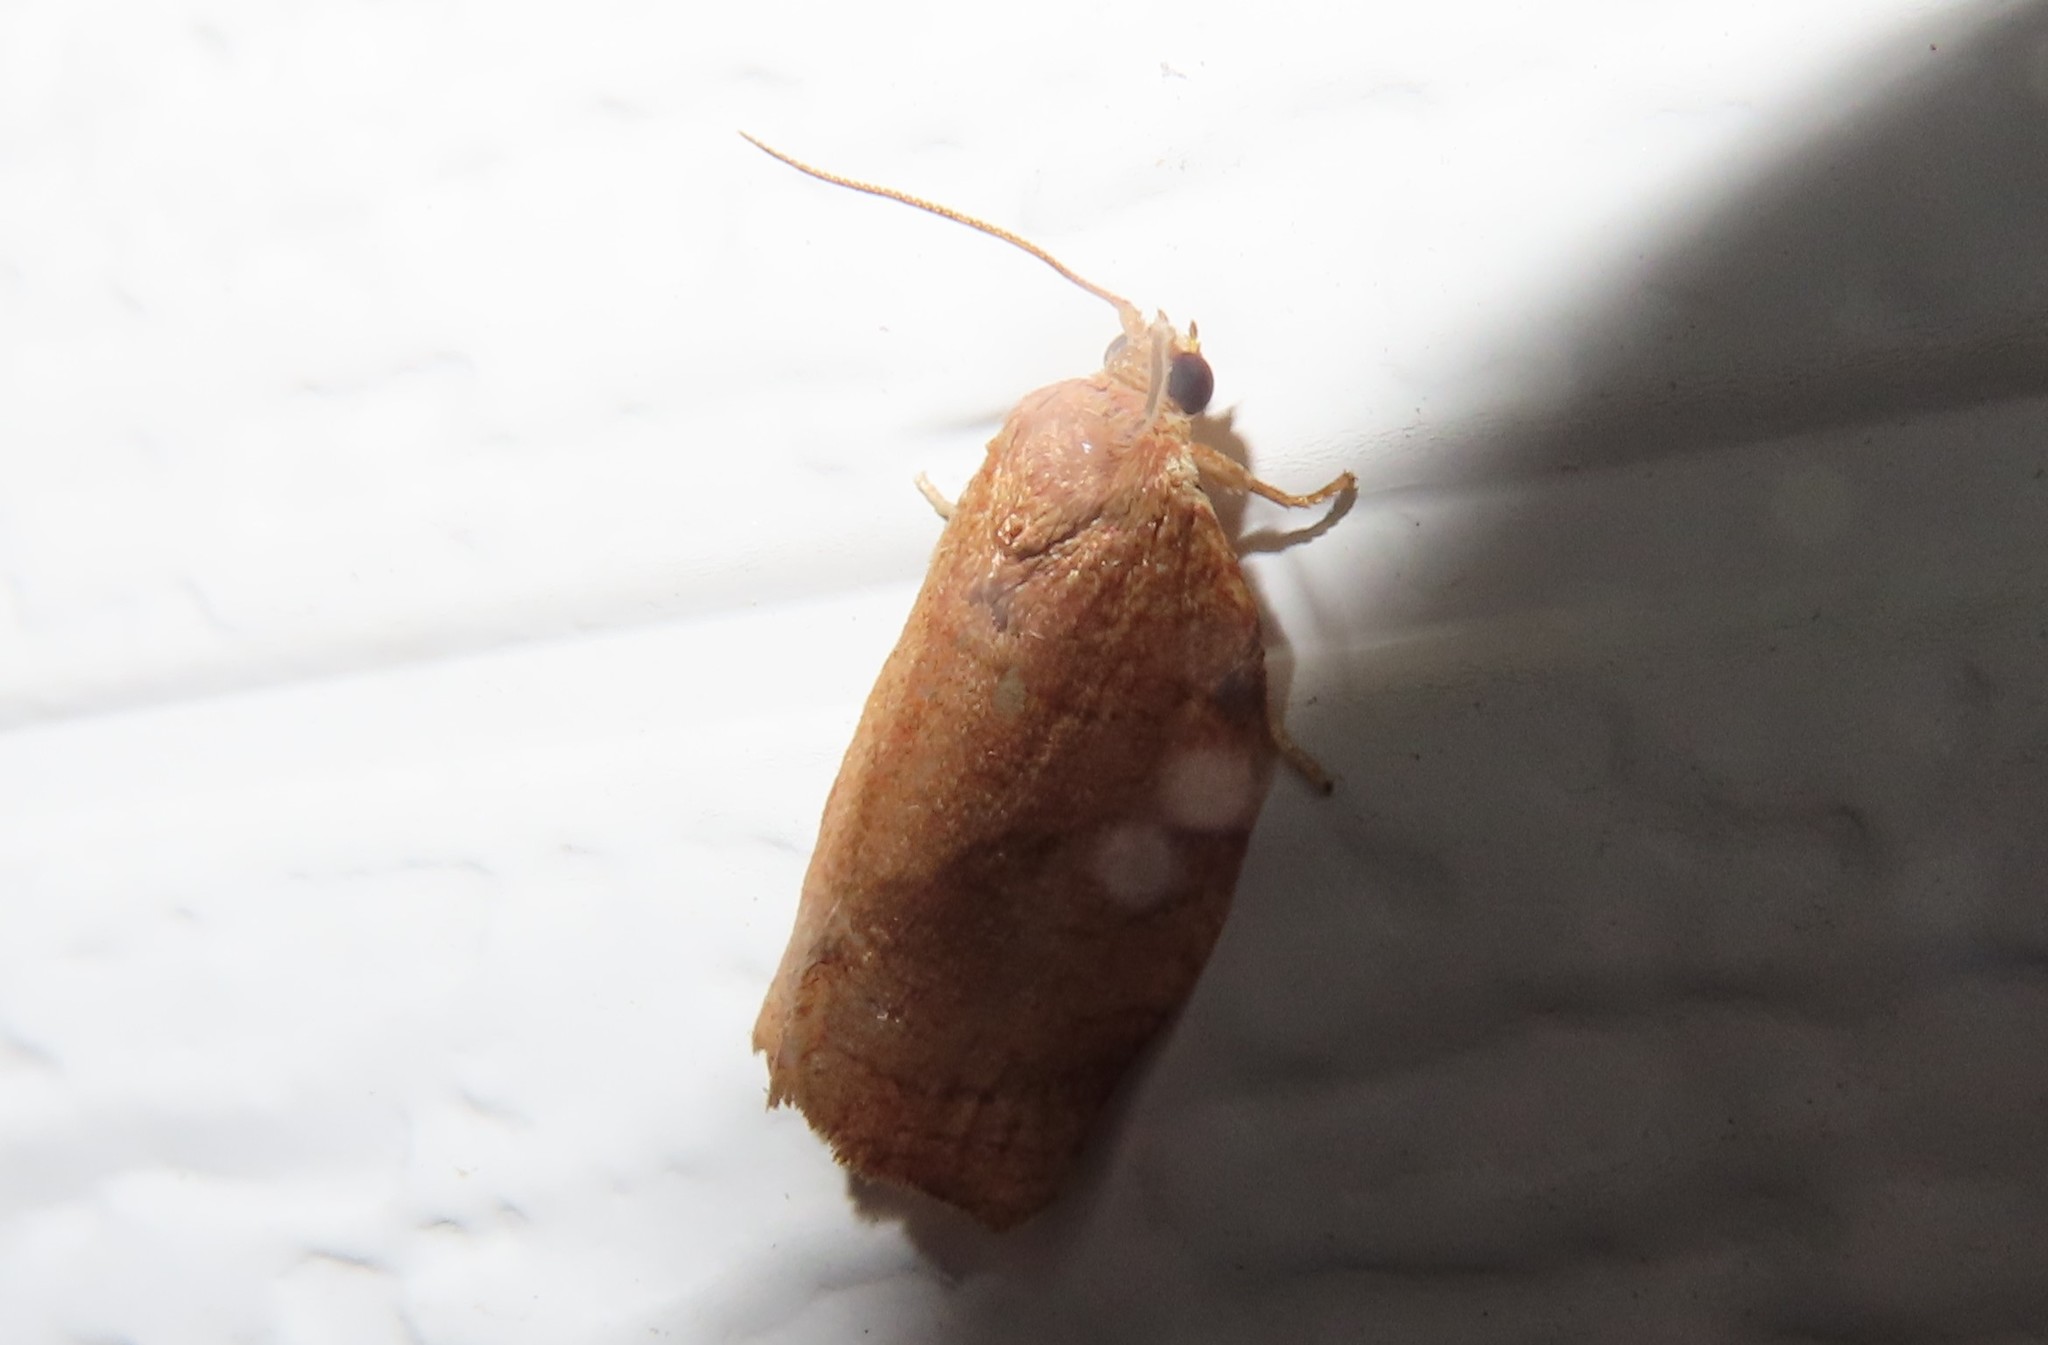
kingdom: Animalia
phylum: Arthropoda
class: Insecta
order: Lepidoptera
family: Tortricidae
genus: Choristoneura
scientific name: Choristoneura rosaceana
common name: Oblique-banded leafroller moth
